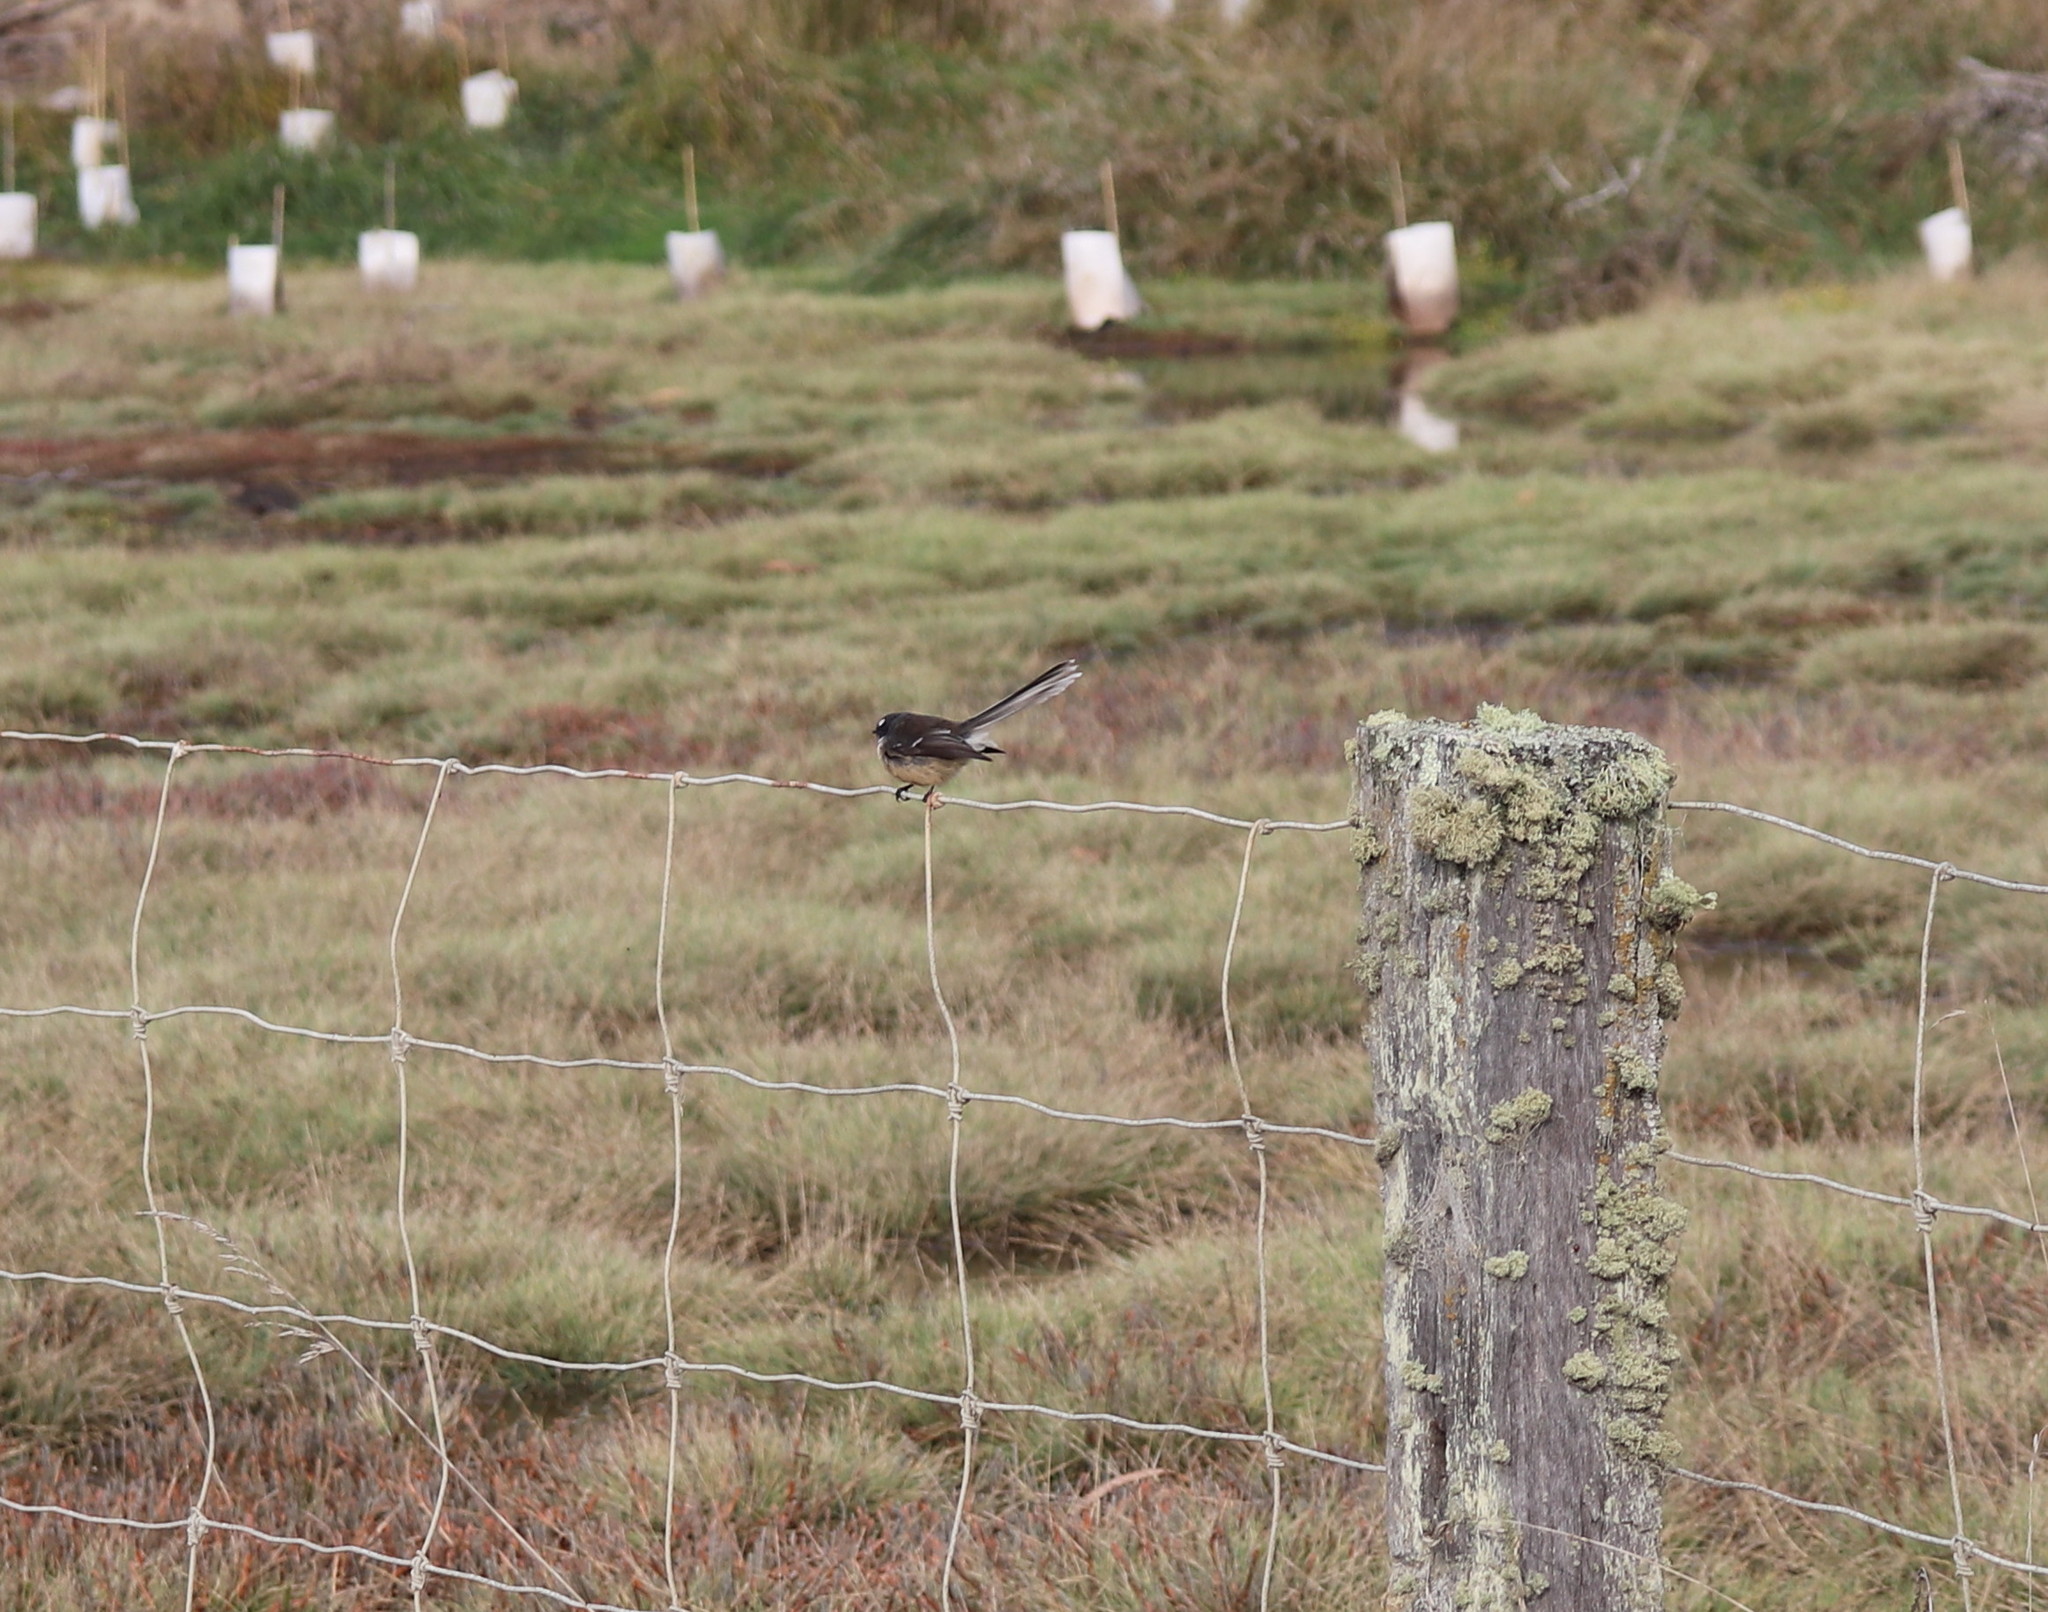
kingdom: Animalia
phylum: Chordata
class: Aves
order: Passeriformes
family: Rhipiduridae
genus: Rhipidura
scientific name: Rhipidura fuliginosa
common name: New zealand fantail
